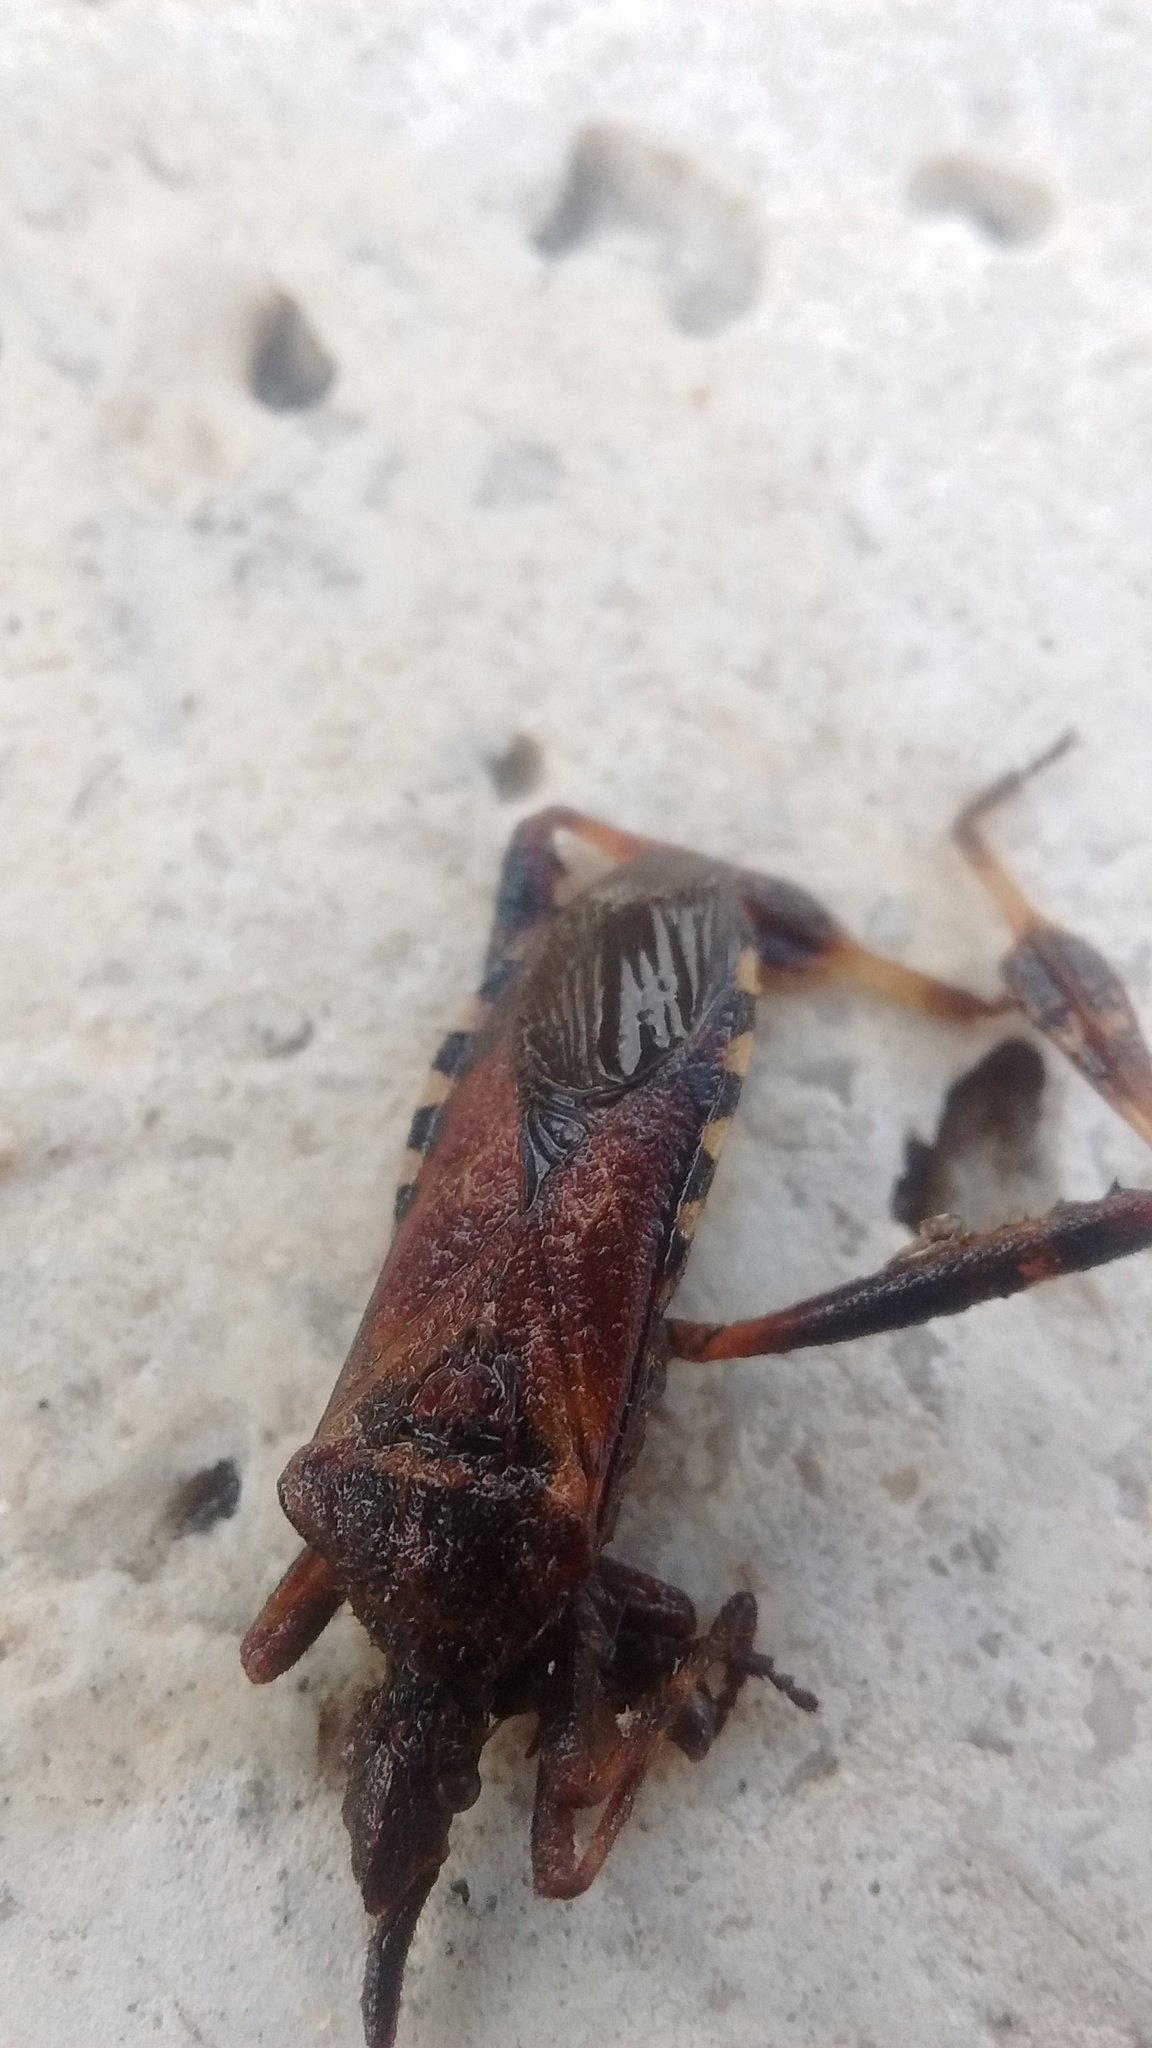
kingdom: Animalia
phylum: Arthropoda
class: Insecta
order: Hemiptera
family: Coreidae
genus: Leptoglossus
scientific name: Leptoglossus occidentalis
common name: Western conifer-seed bug
